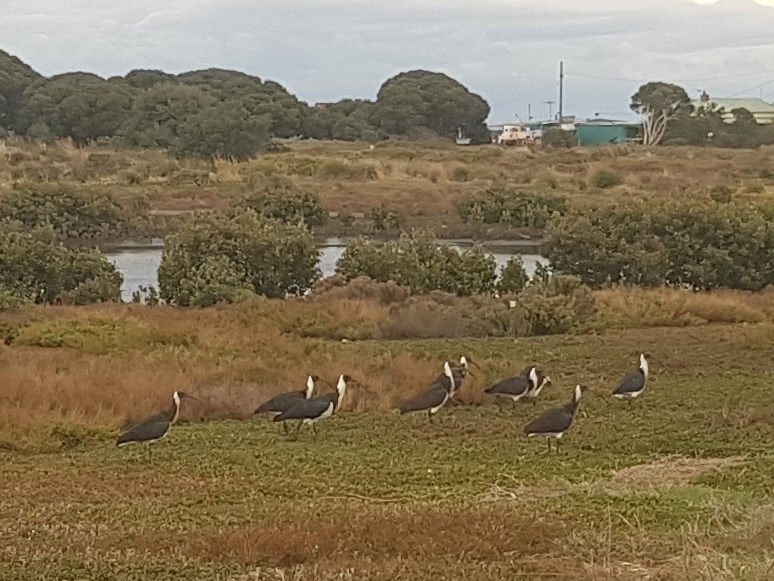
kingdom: Animalia
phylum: Chordata
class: Aves
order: Pelecaniformes
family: Threskiornithidae
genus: Threskiornis
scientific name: Threskiornis spinicollis
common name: Straw-necked ibis
